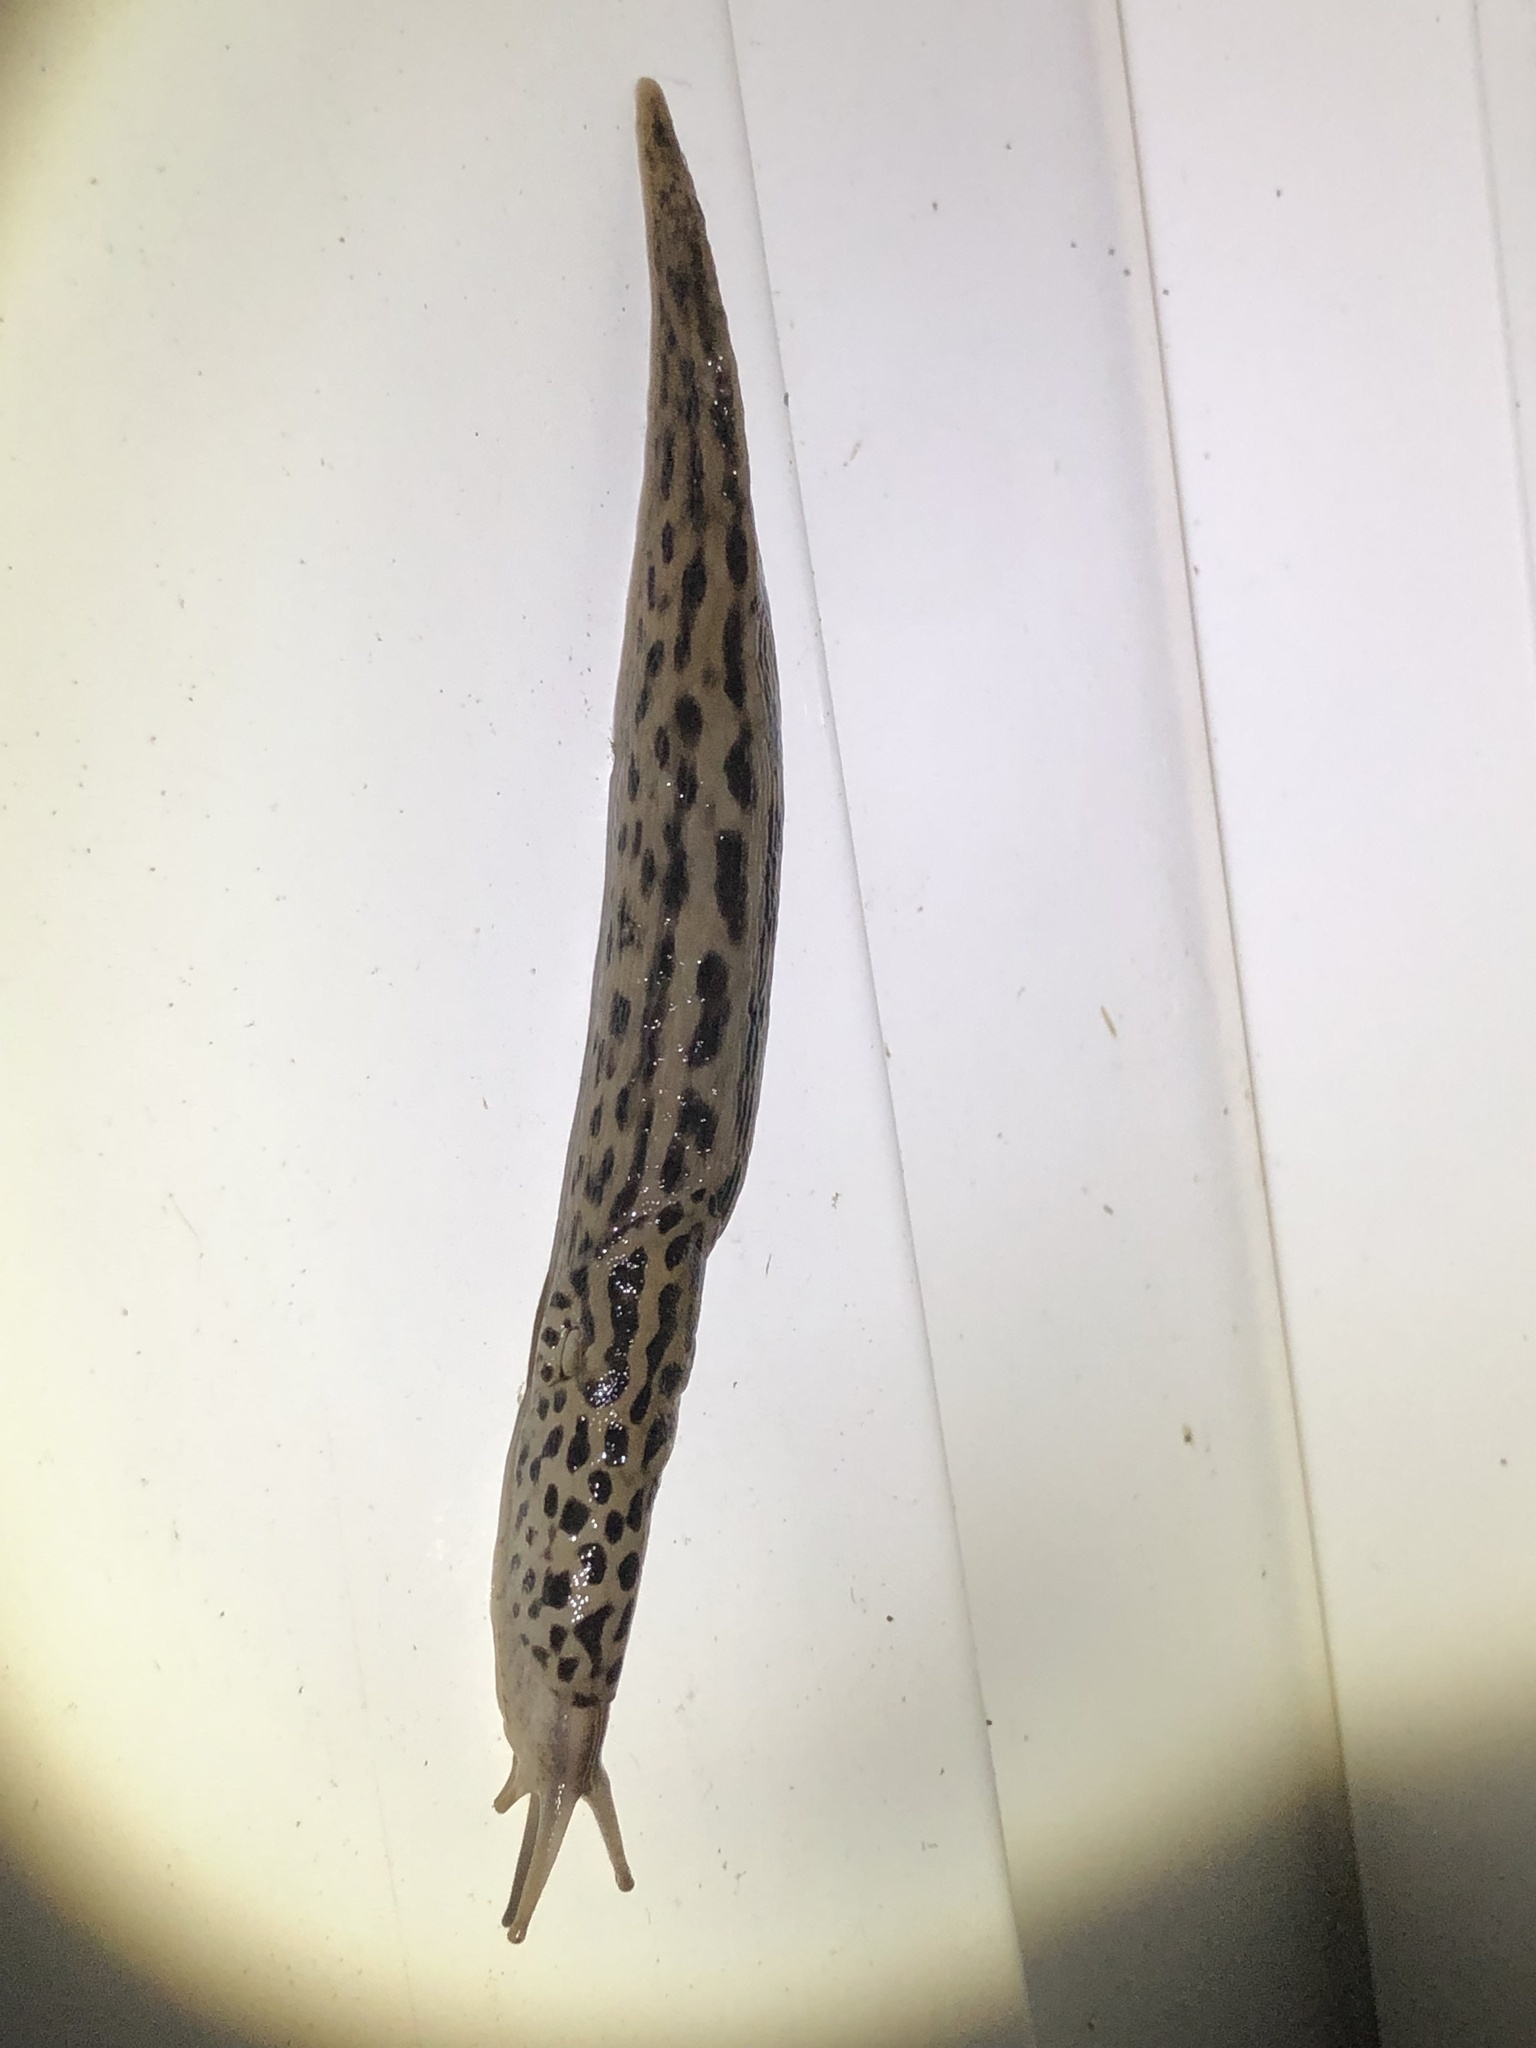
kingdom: Animalia
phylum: Mollusca
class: Gastropoda
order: Stylommatophora
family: Limacidae
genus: Limax
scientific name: Limax maximus
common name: Great grey slug
